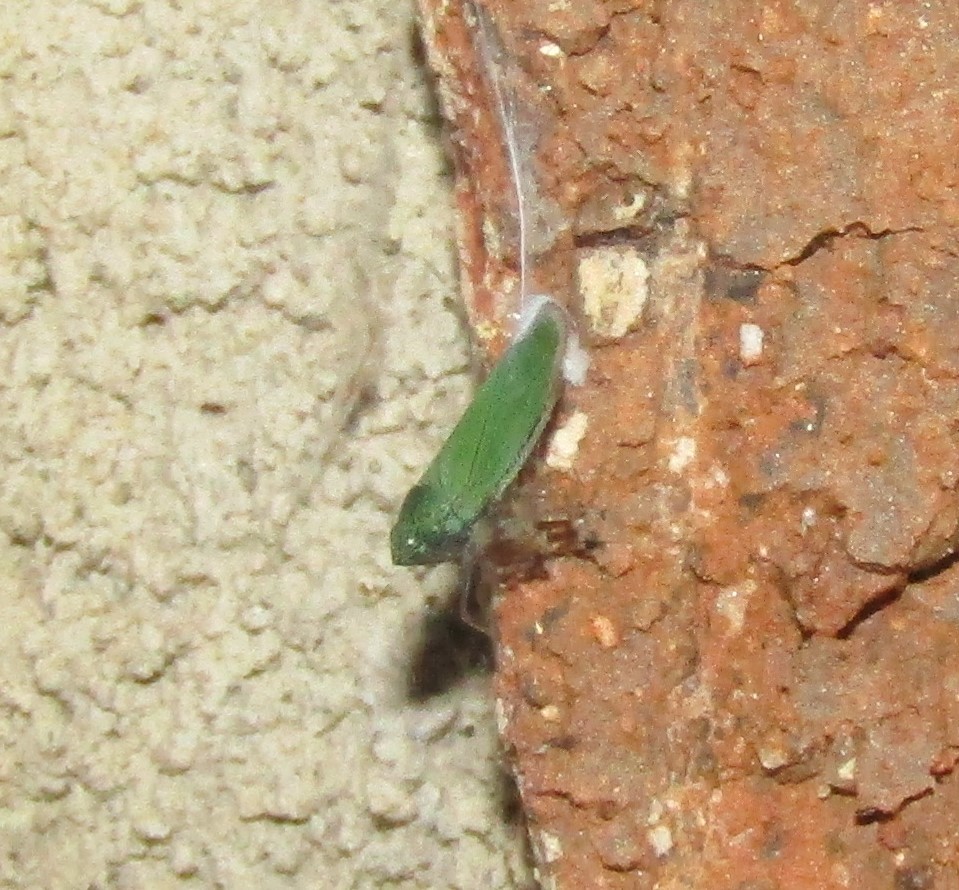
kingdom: Animalia
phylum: Arthropoda
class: Insecta
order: Hemiptera
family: Cicadellidae
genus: Draeculacephala
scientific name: Draeculacephala inscripta
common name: Leafhopper
